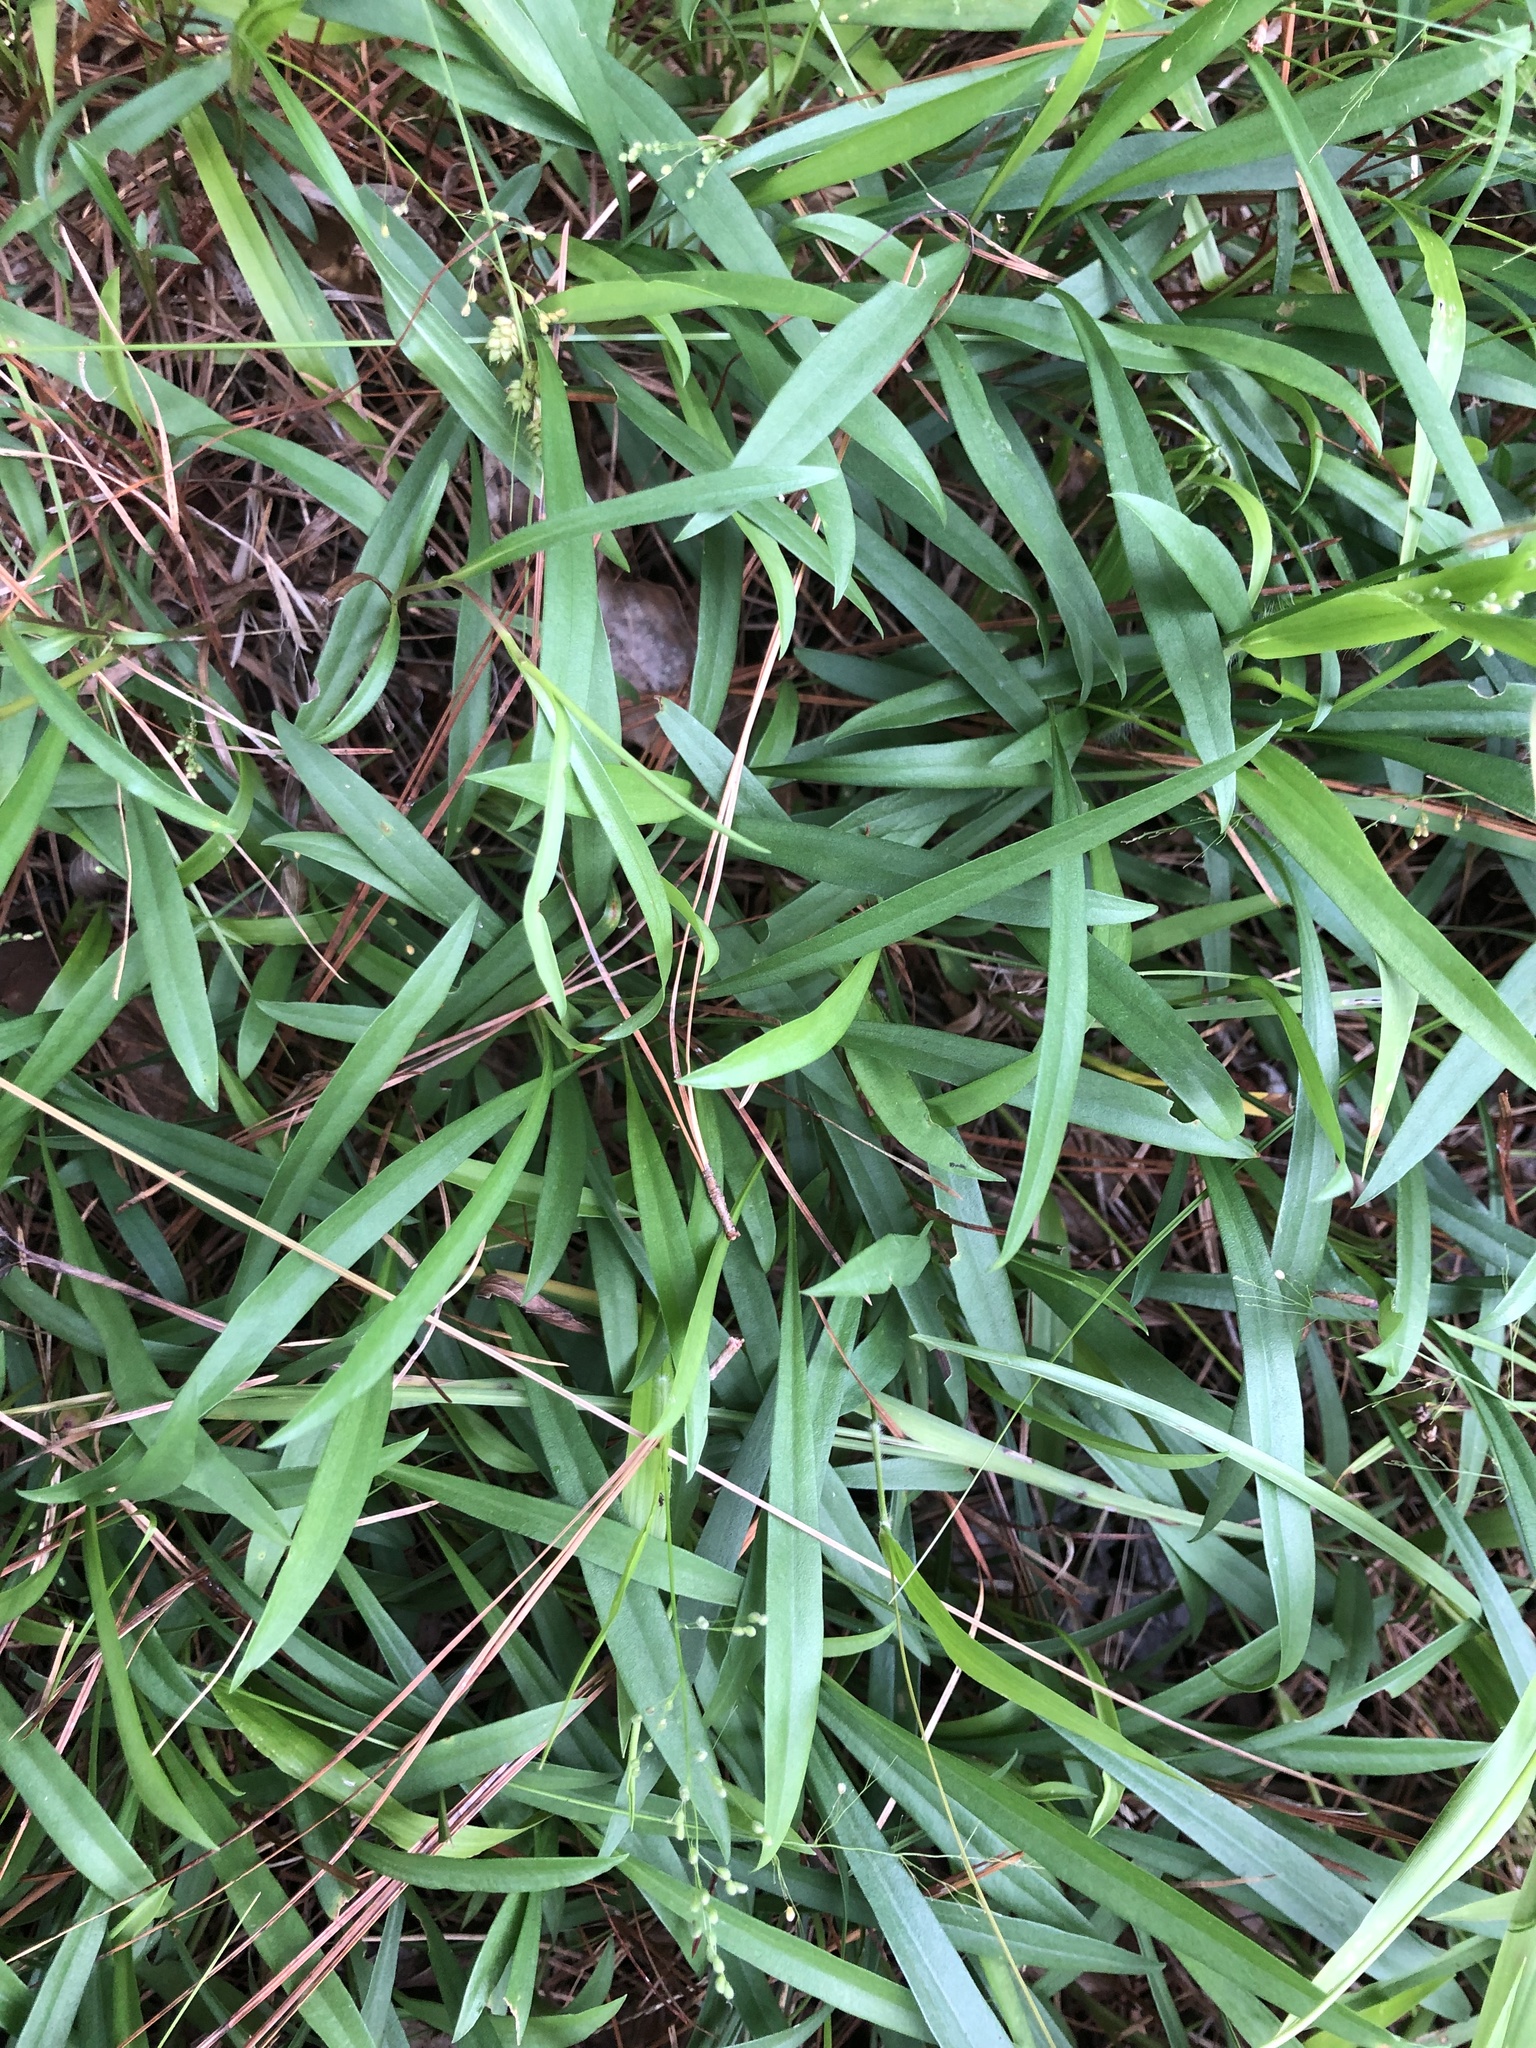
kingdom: Plantae
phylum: Tracheophyta
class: Magnoliopsida
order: Asterales
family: Asteraceae
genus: Eurybia
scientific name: Eurybia hemispherica
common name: Showy aster
